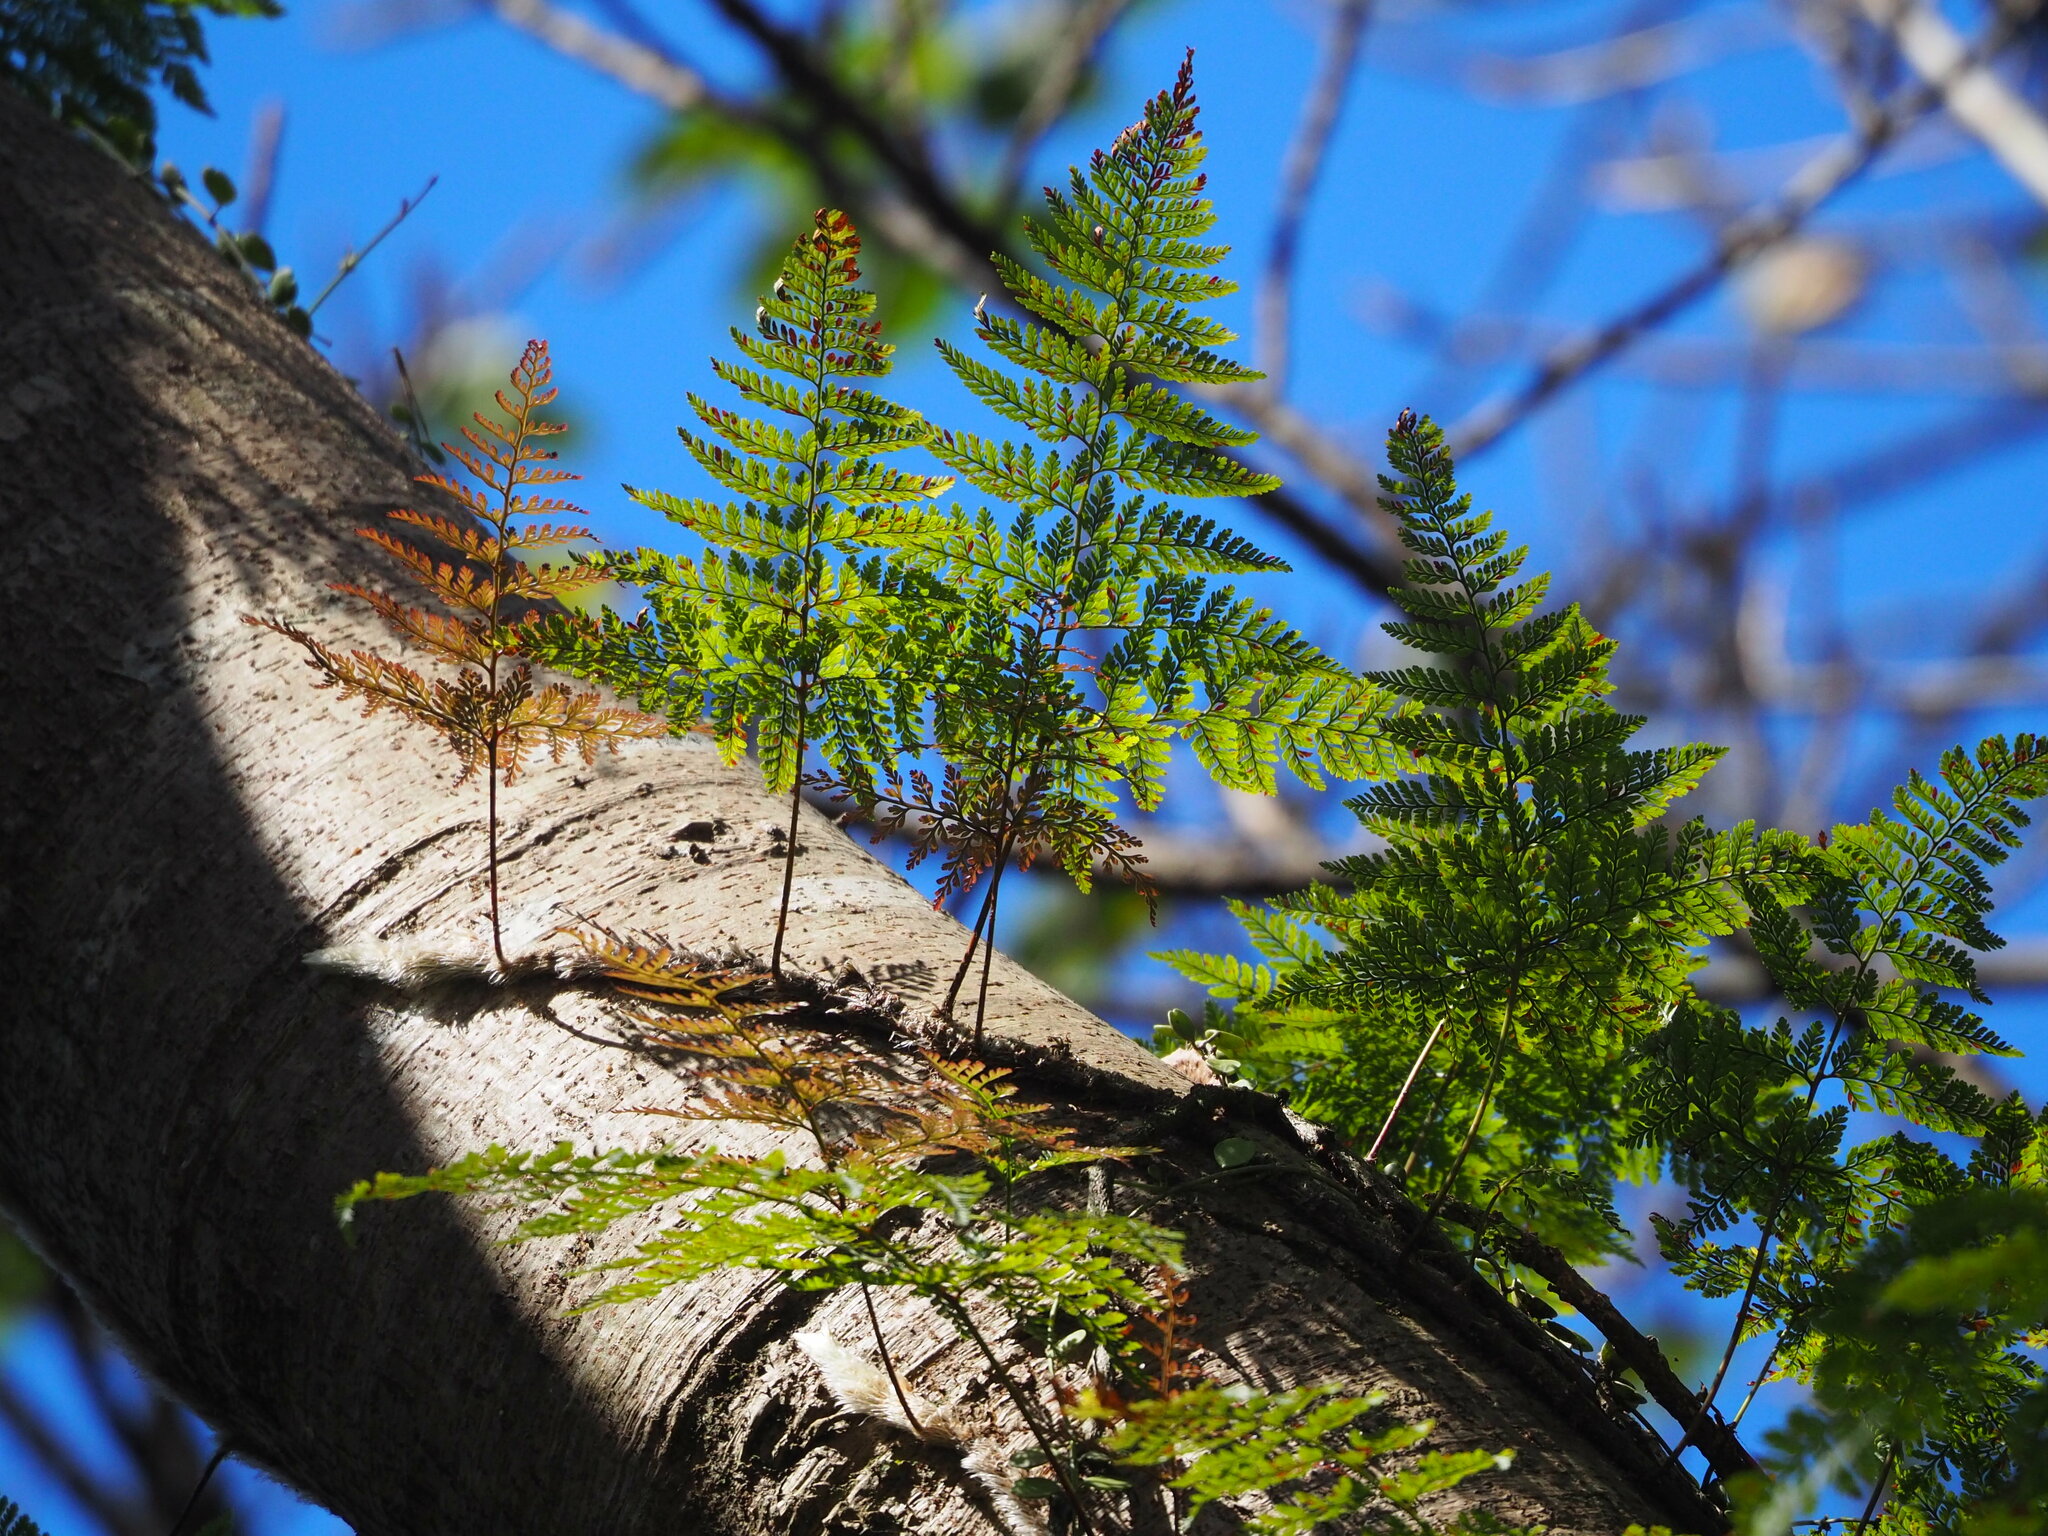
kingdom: Plantae
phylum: Tracheophyta
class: Polypodiopsida
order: Polypodiales
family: Davalliaceae
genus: Davallia
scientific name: Davallia griffithiana
